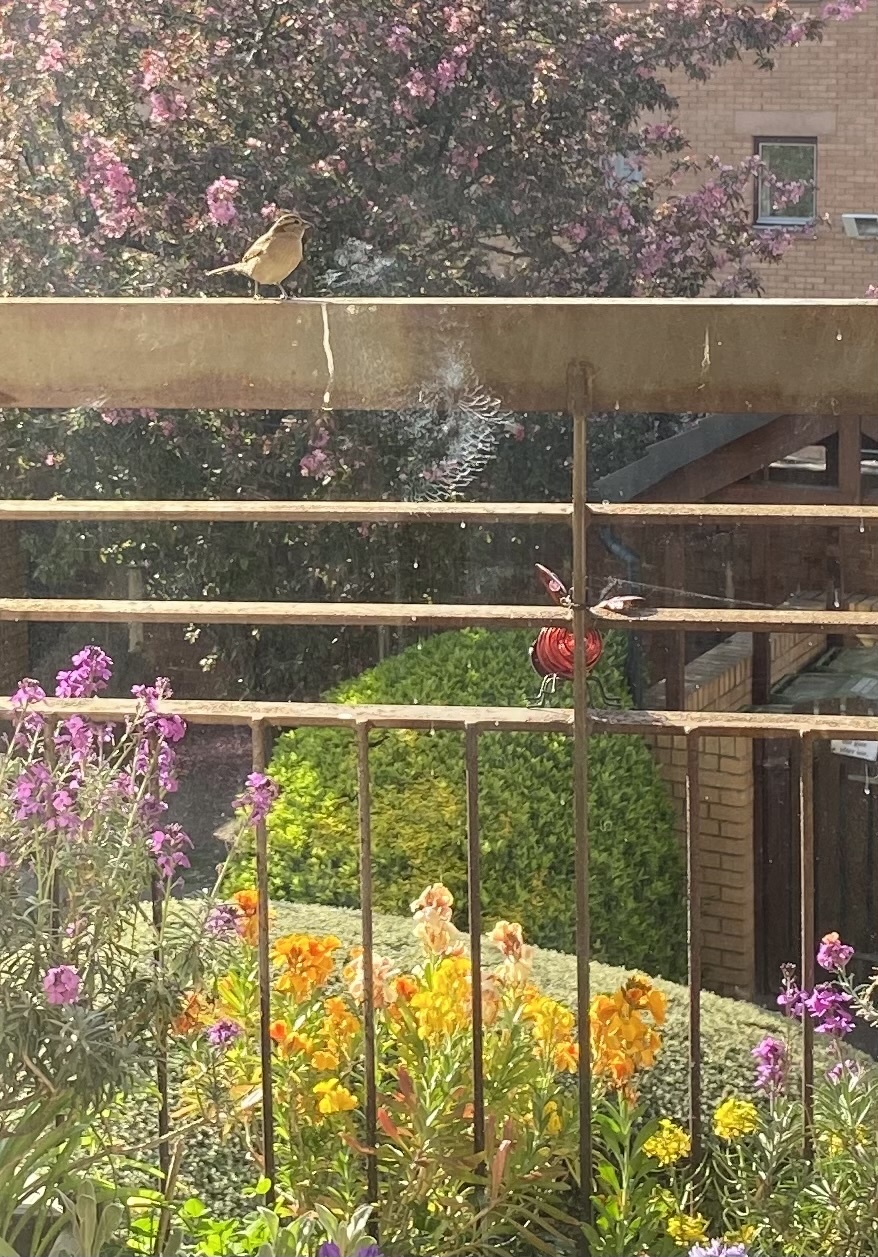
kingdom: Animalia
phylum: Chordata
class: Aves
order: Passeriformes
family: Passeridae
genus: Passer
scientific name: Passer domesticus
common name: House sparrow
